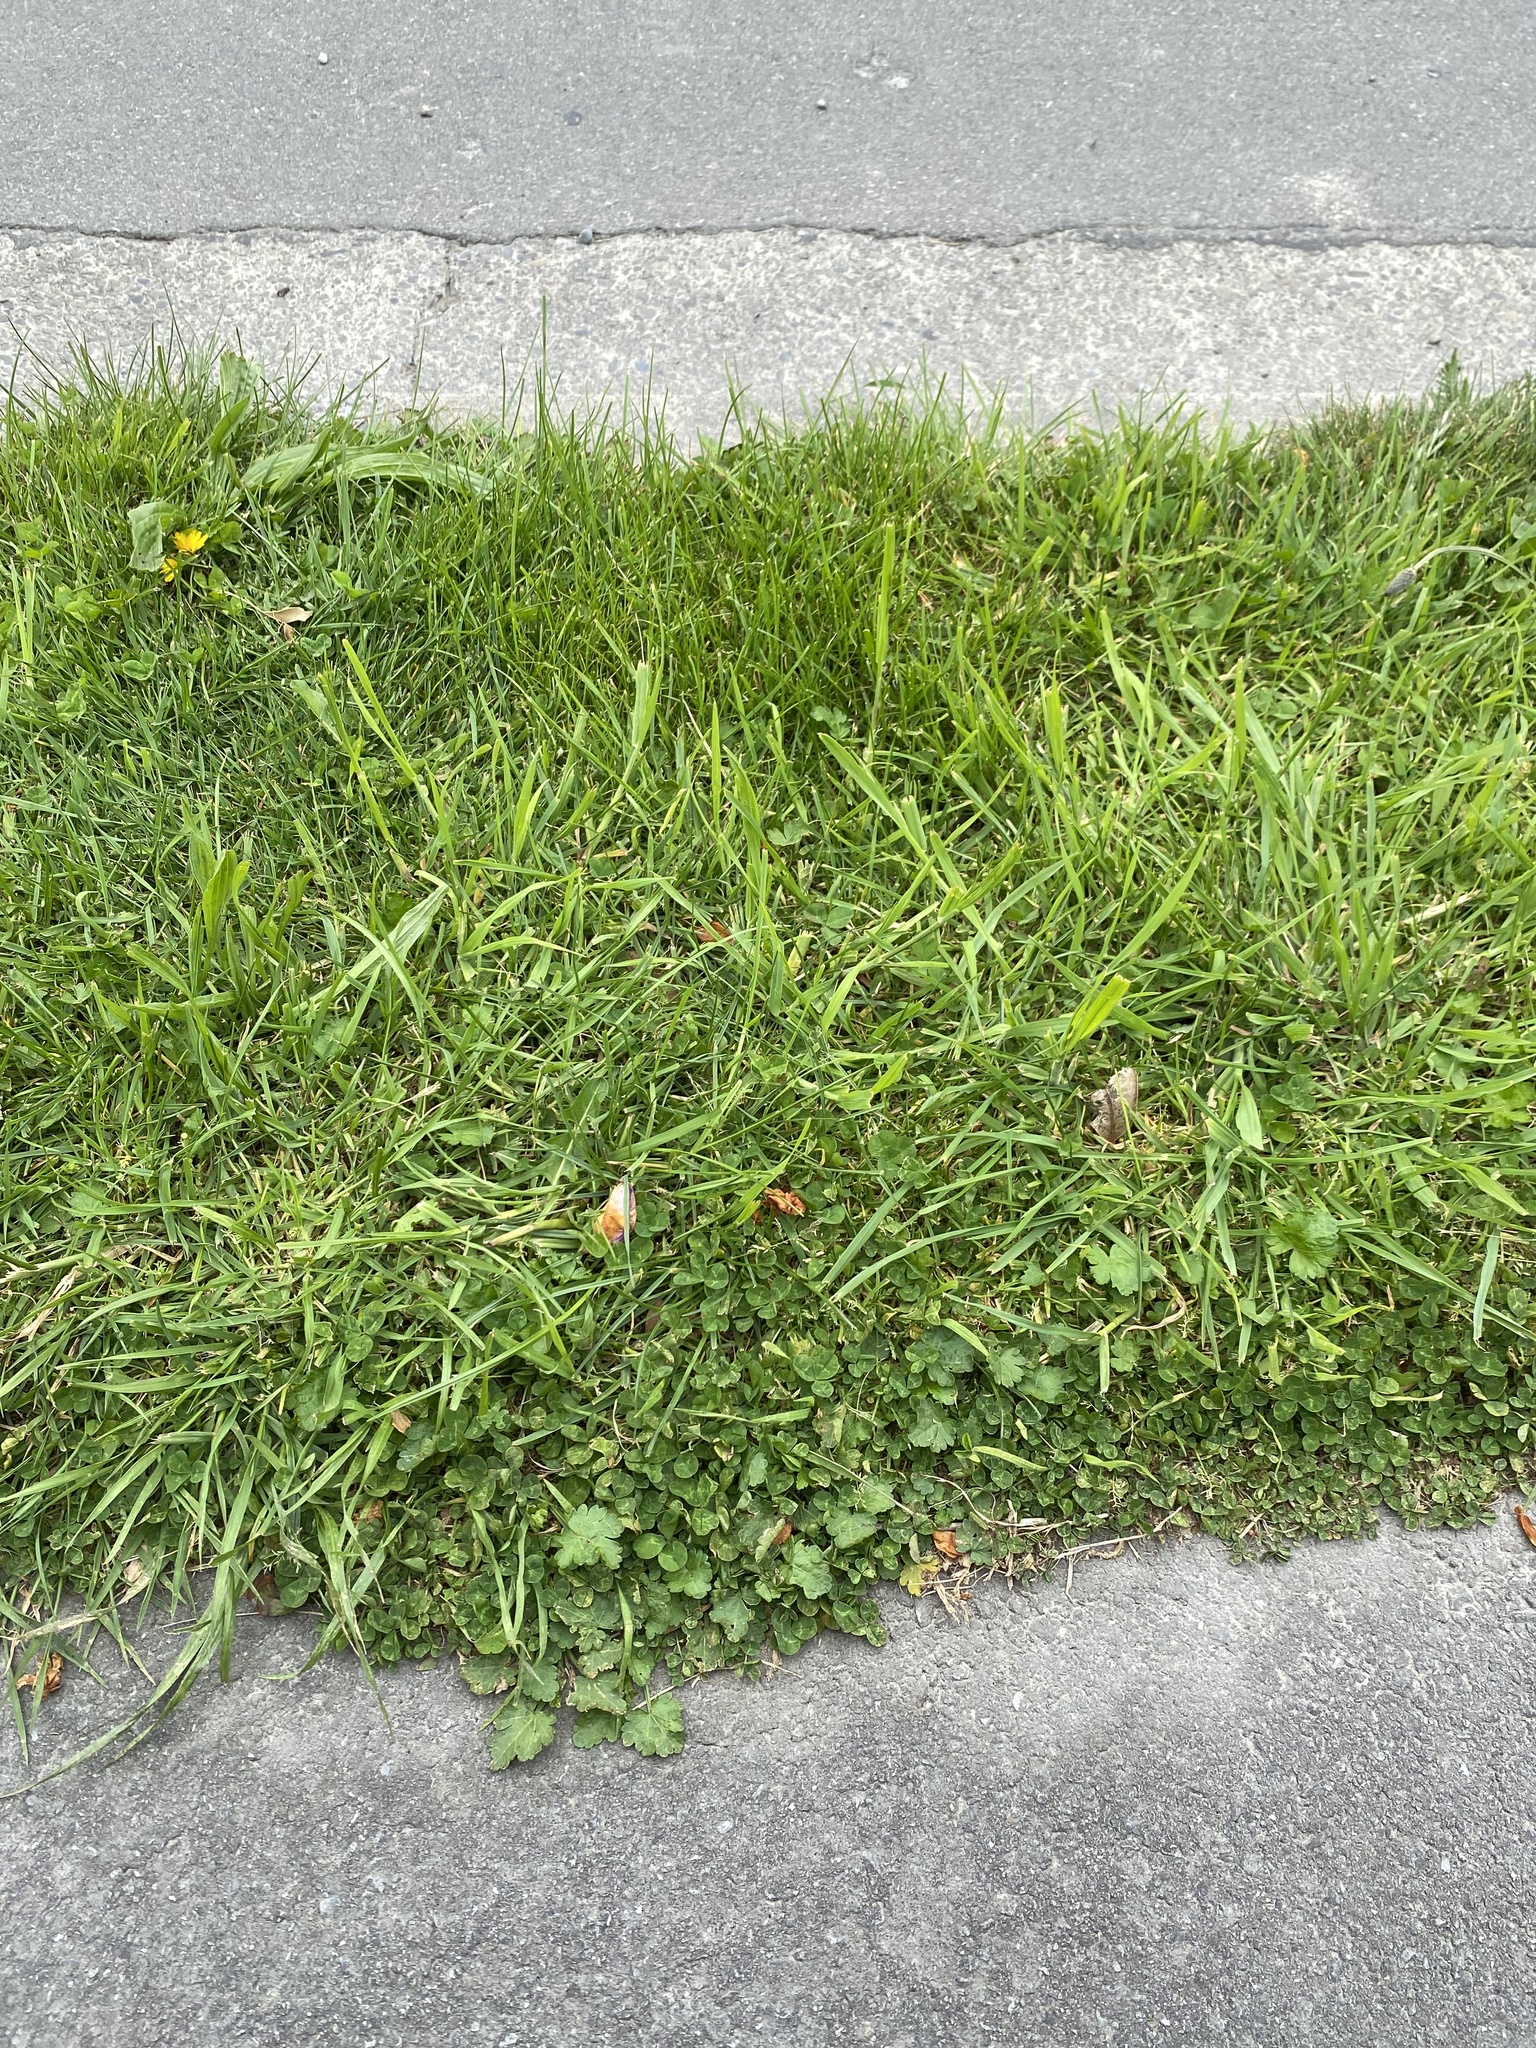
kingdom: Plantae
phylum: Tracheophyta
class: Magnoliopsida
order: Malvales
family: Malvaceae
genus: Modiola
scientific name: Modiola caroliniana
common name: Carolina bristlemallow
